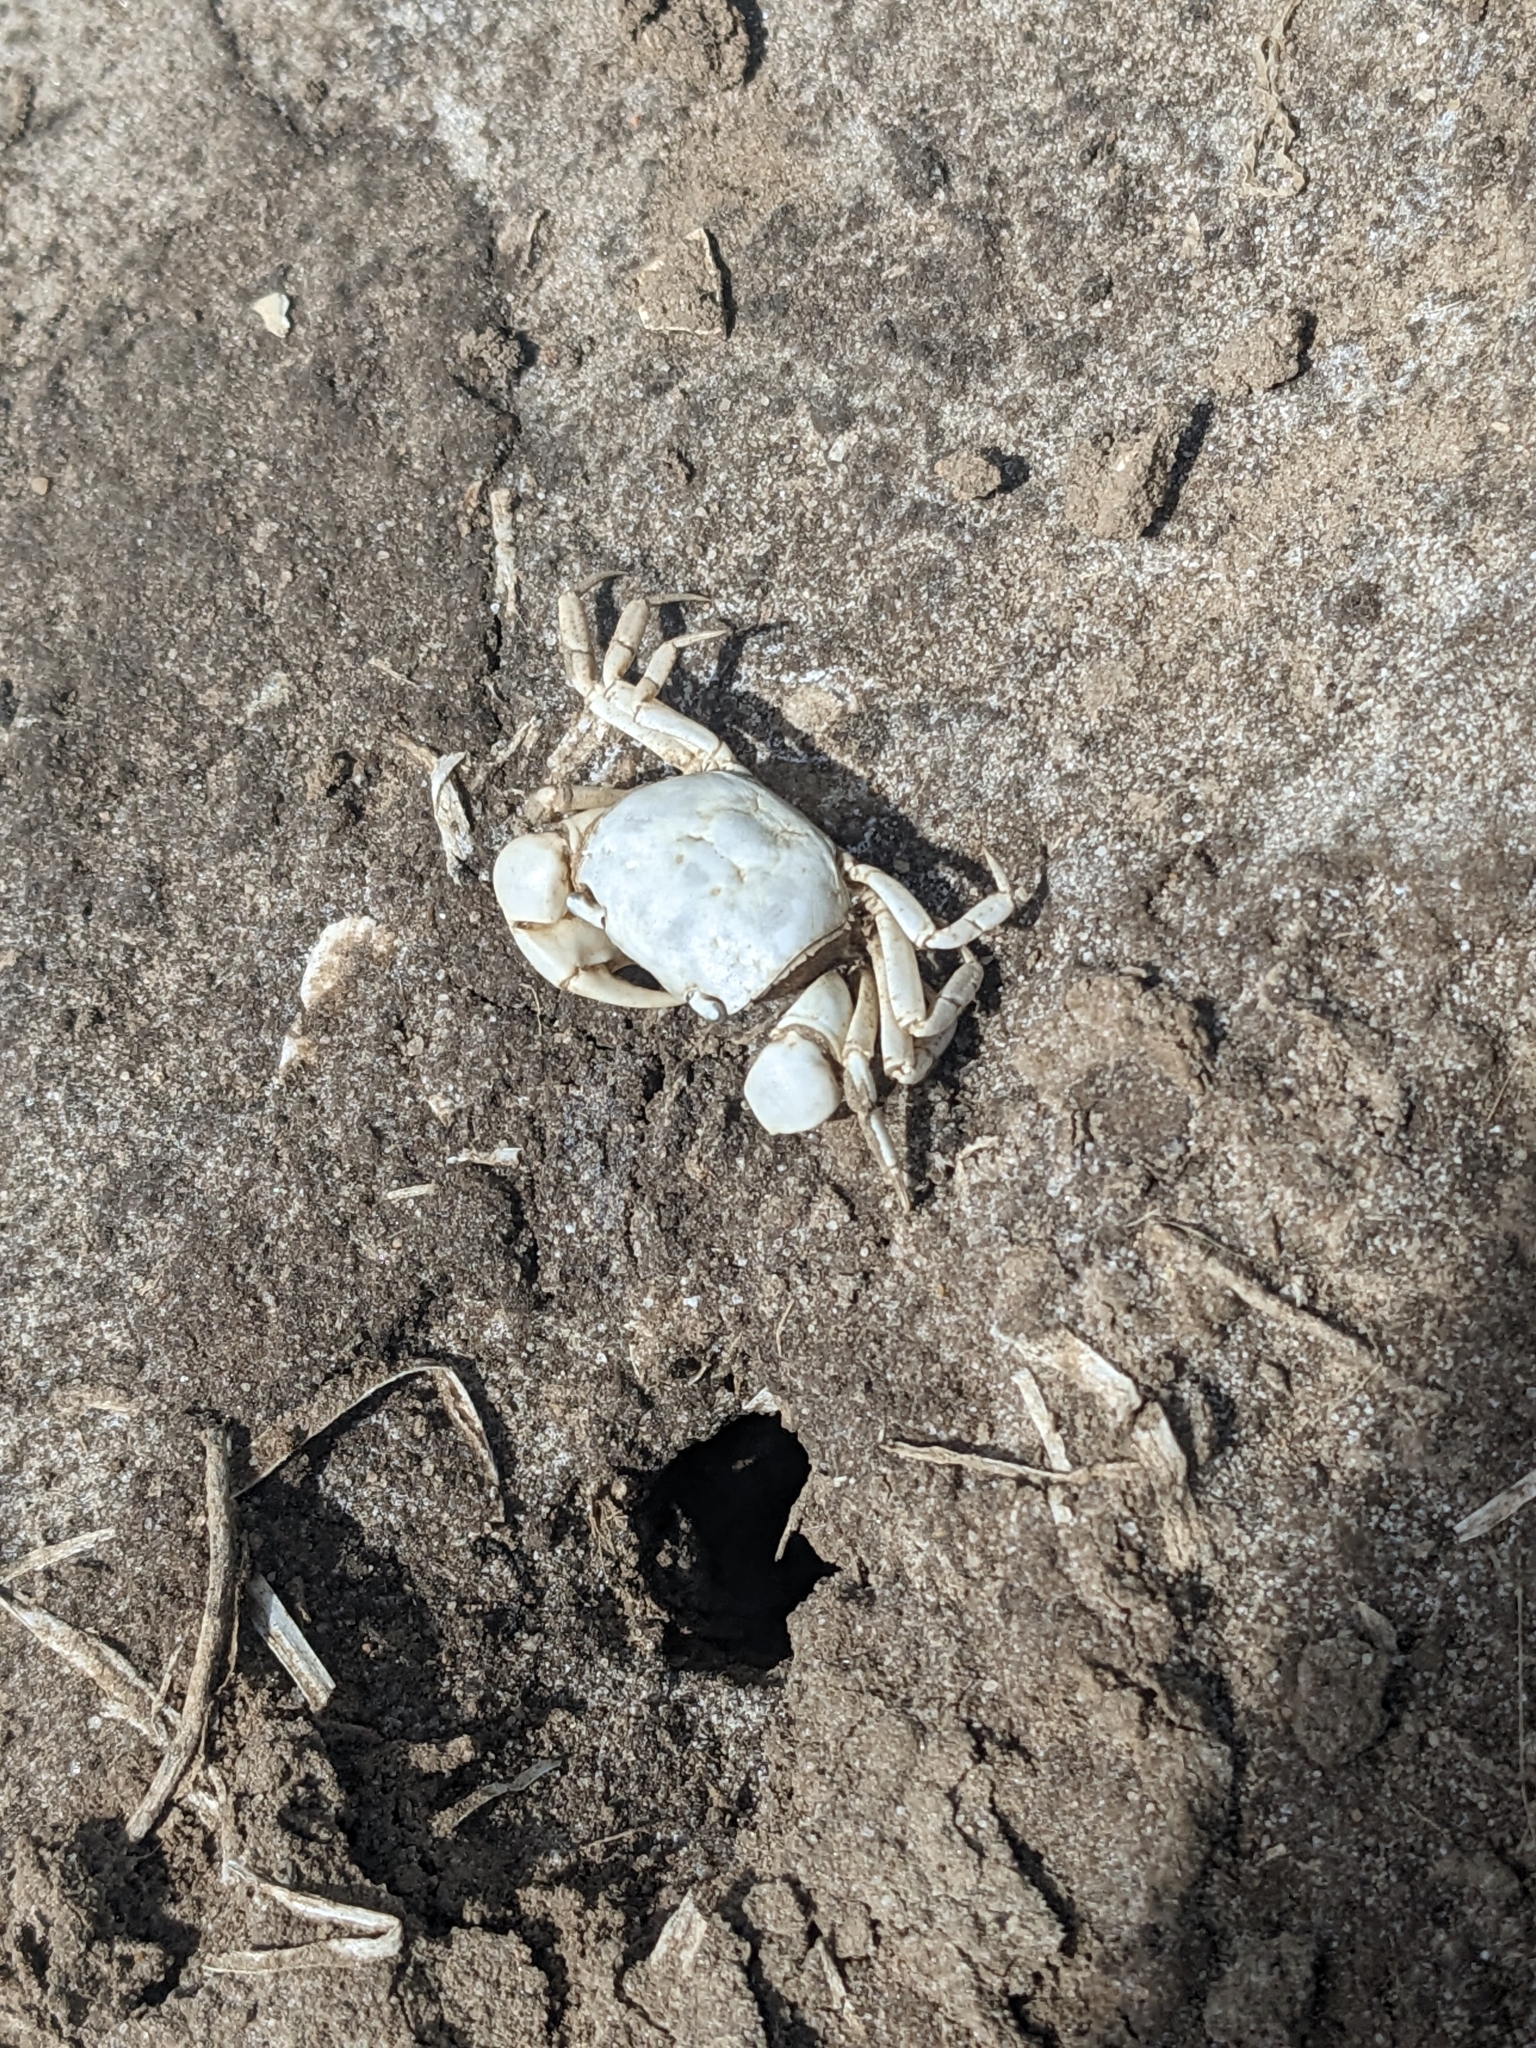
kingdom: Animalia
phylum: Arthropoda
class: Malacostraca
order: Decapoda
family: Varunidae
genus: Helograpsus
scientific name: Helograpsus haswellianus
